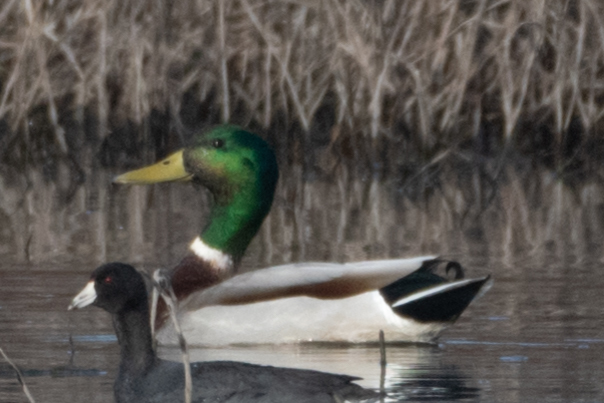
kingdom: Animalia
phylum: Chordata
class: Aves
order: Anseriformes
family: Anatidae
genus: Anas
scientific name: Anas platyrhynchos
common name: Mallard
